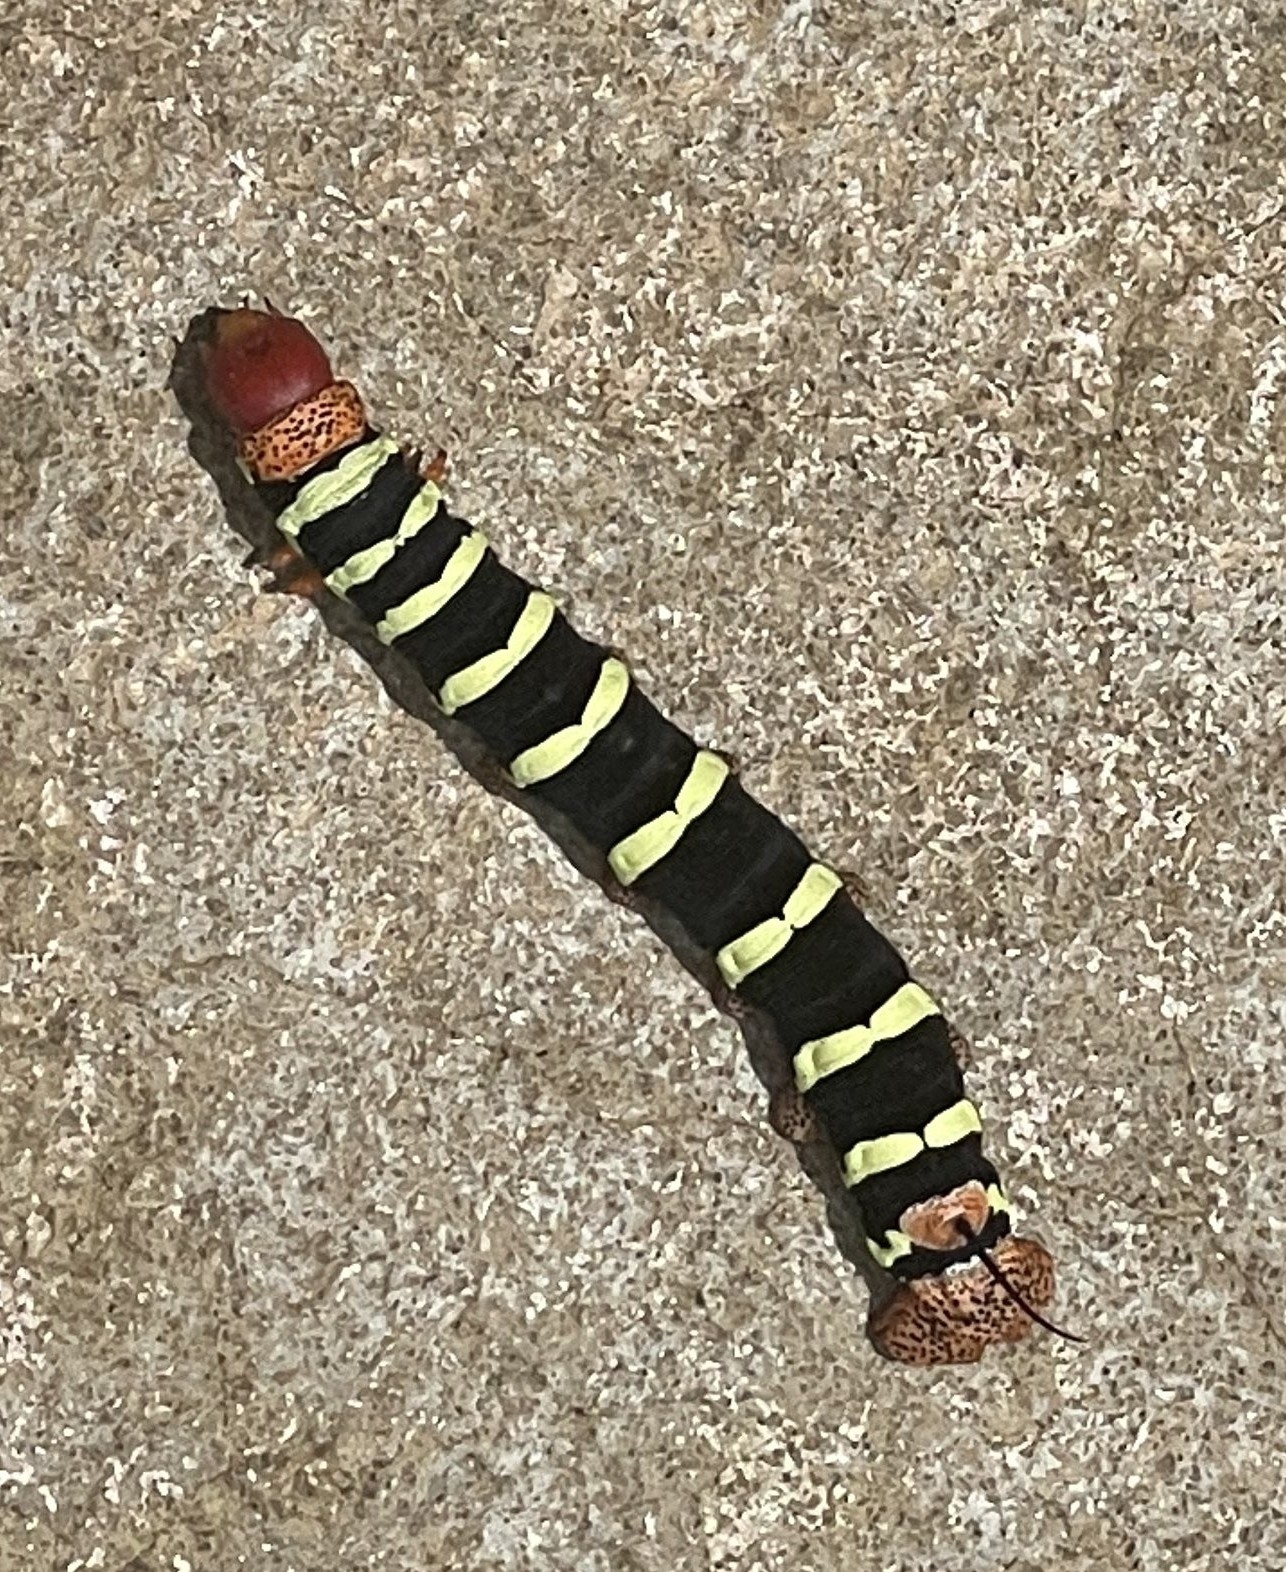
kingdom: Animalia
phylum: Arthropoda
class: Insecta
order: Lepidoptera
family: Sphingidae
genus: Pseudosphinx
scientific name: Pseudosphinx tetrio
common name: Tetrio sphinx
